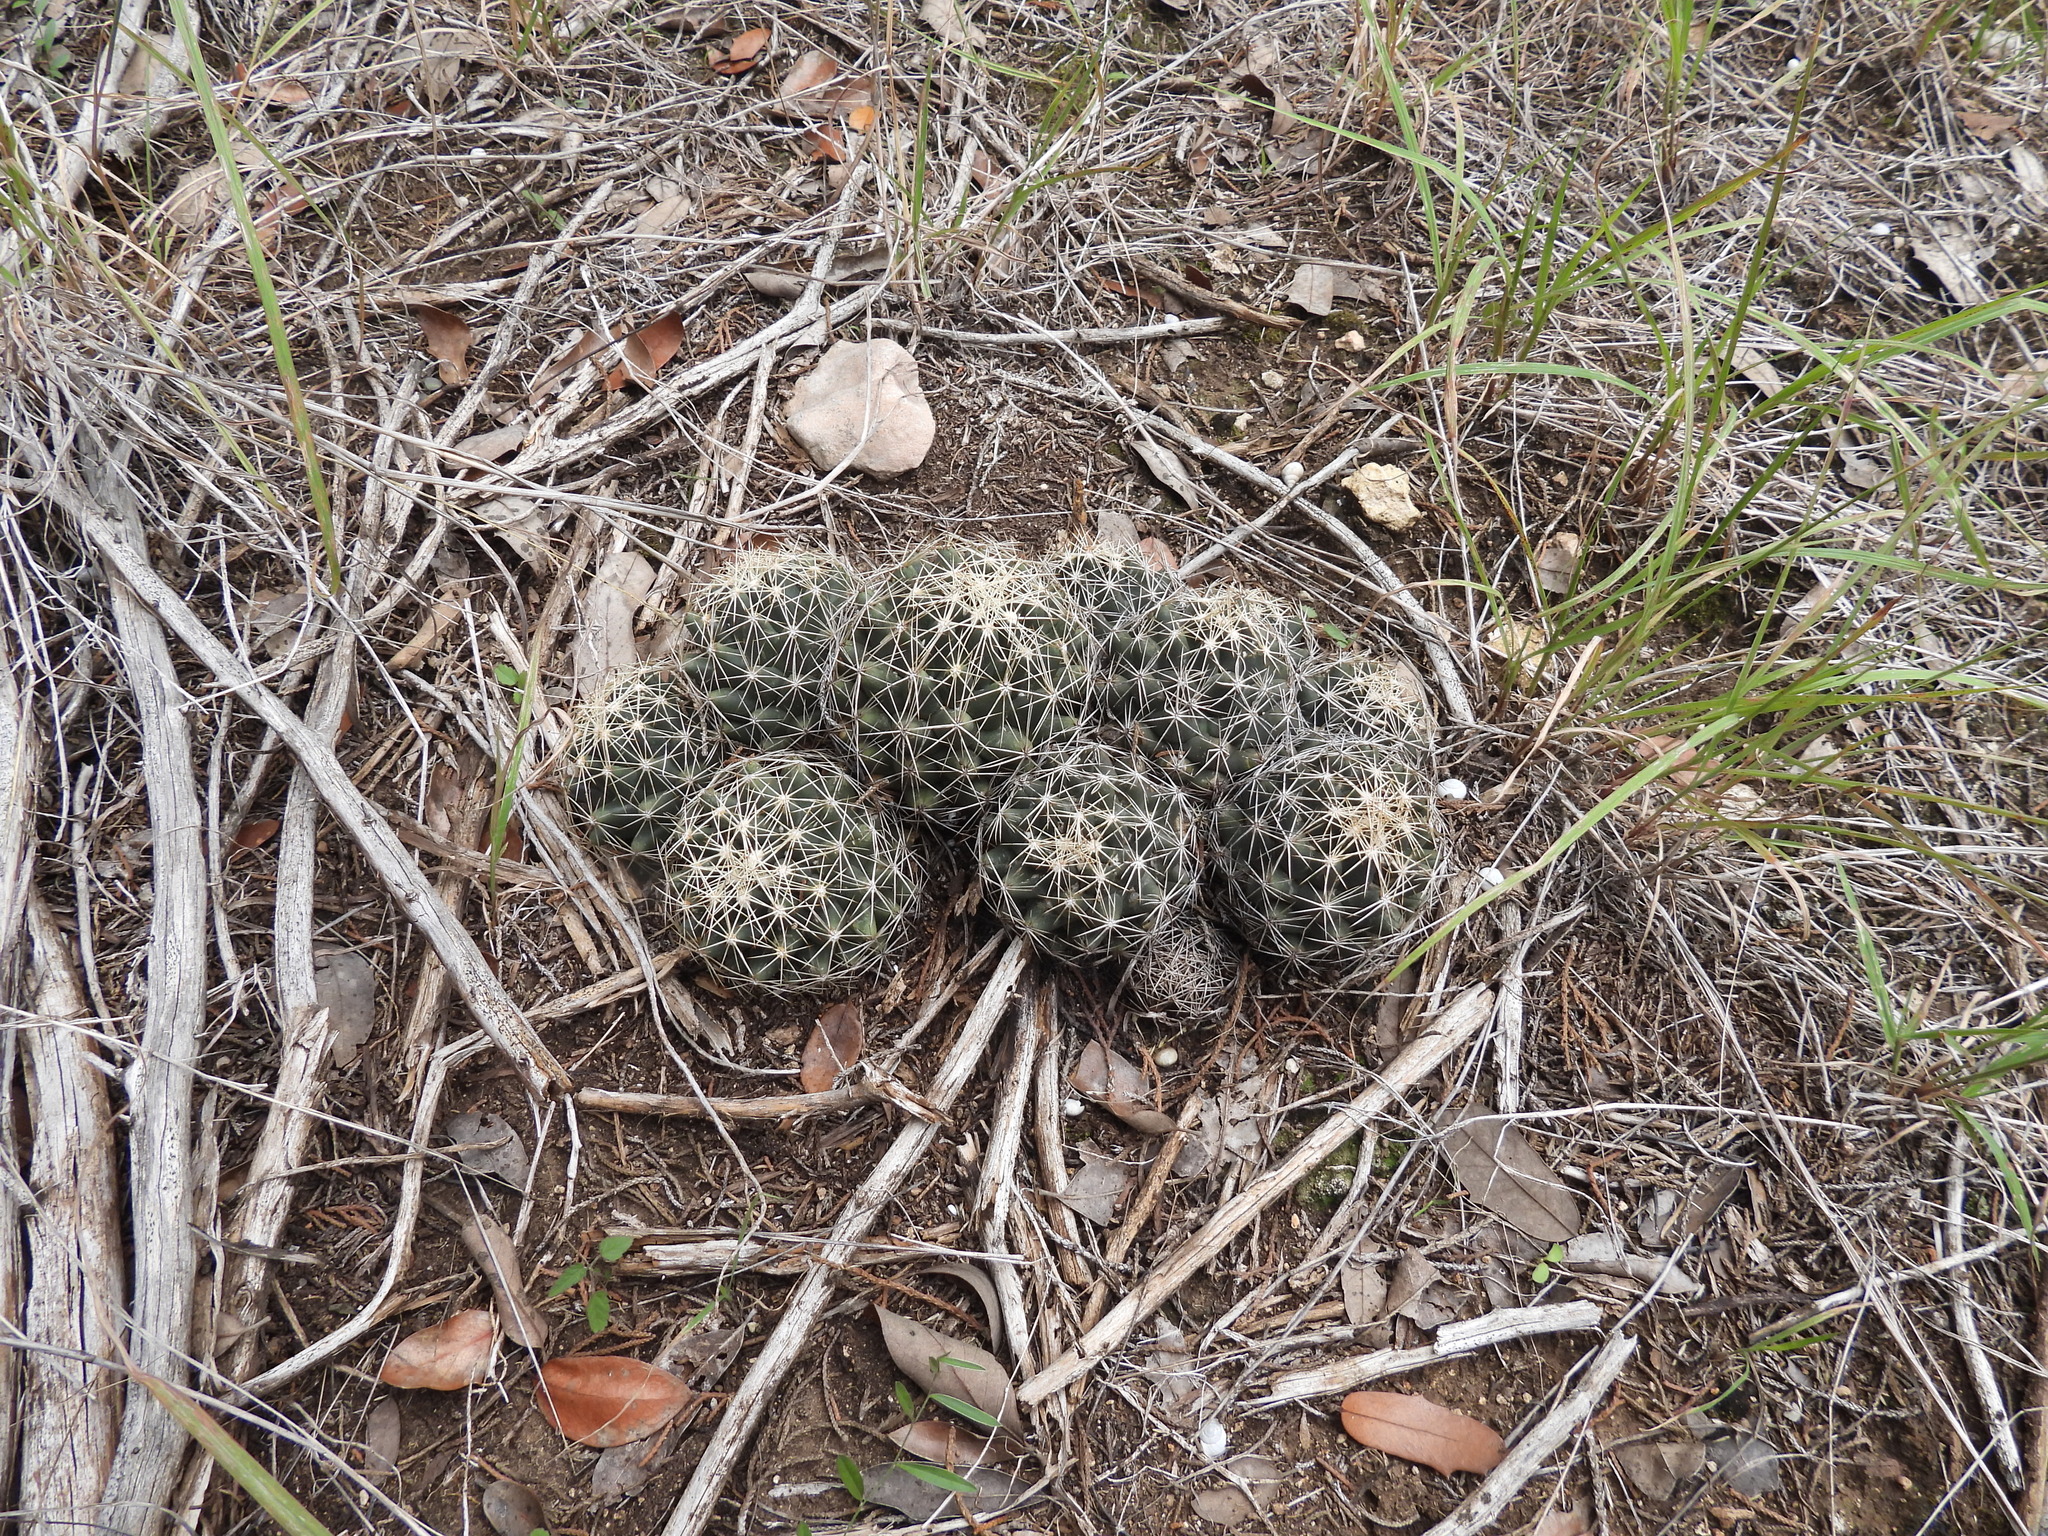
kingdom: Plantae
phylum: Tracheophyta
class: Magnoliopsida
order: Caryophyllales
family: Cactaceae
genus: Coryphantha
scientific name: Coryphantha sulcata
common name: Finger cactus
